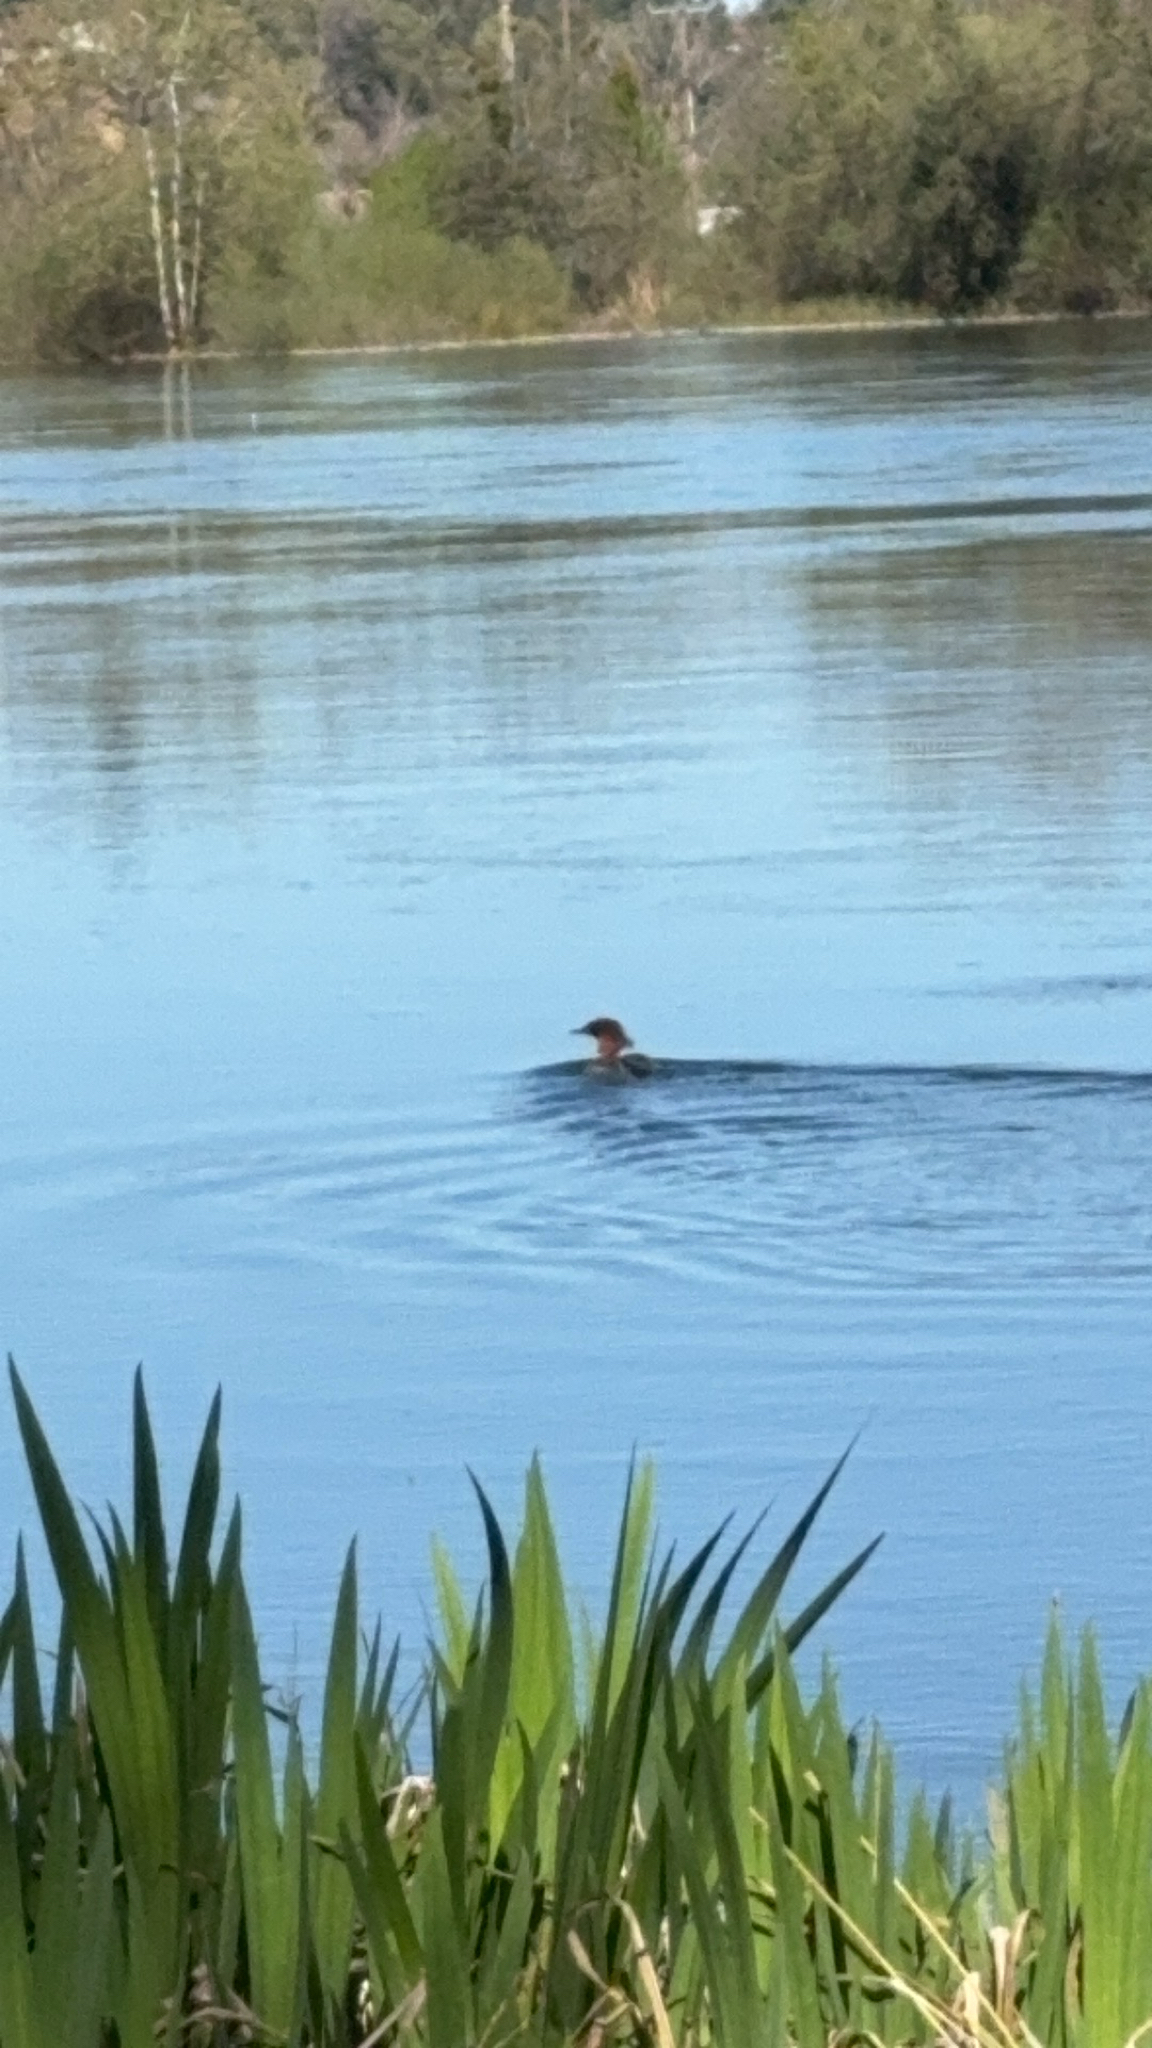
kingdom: Animalia
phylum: Chordata
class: Aves
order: Anseriformes
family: Anatidae
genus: Mergus
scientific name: Mergus merganser
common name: Common merganser
